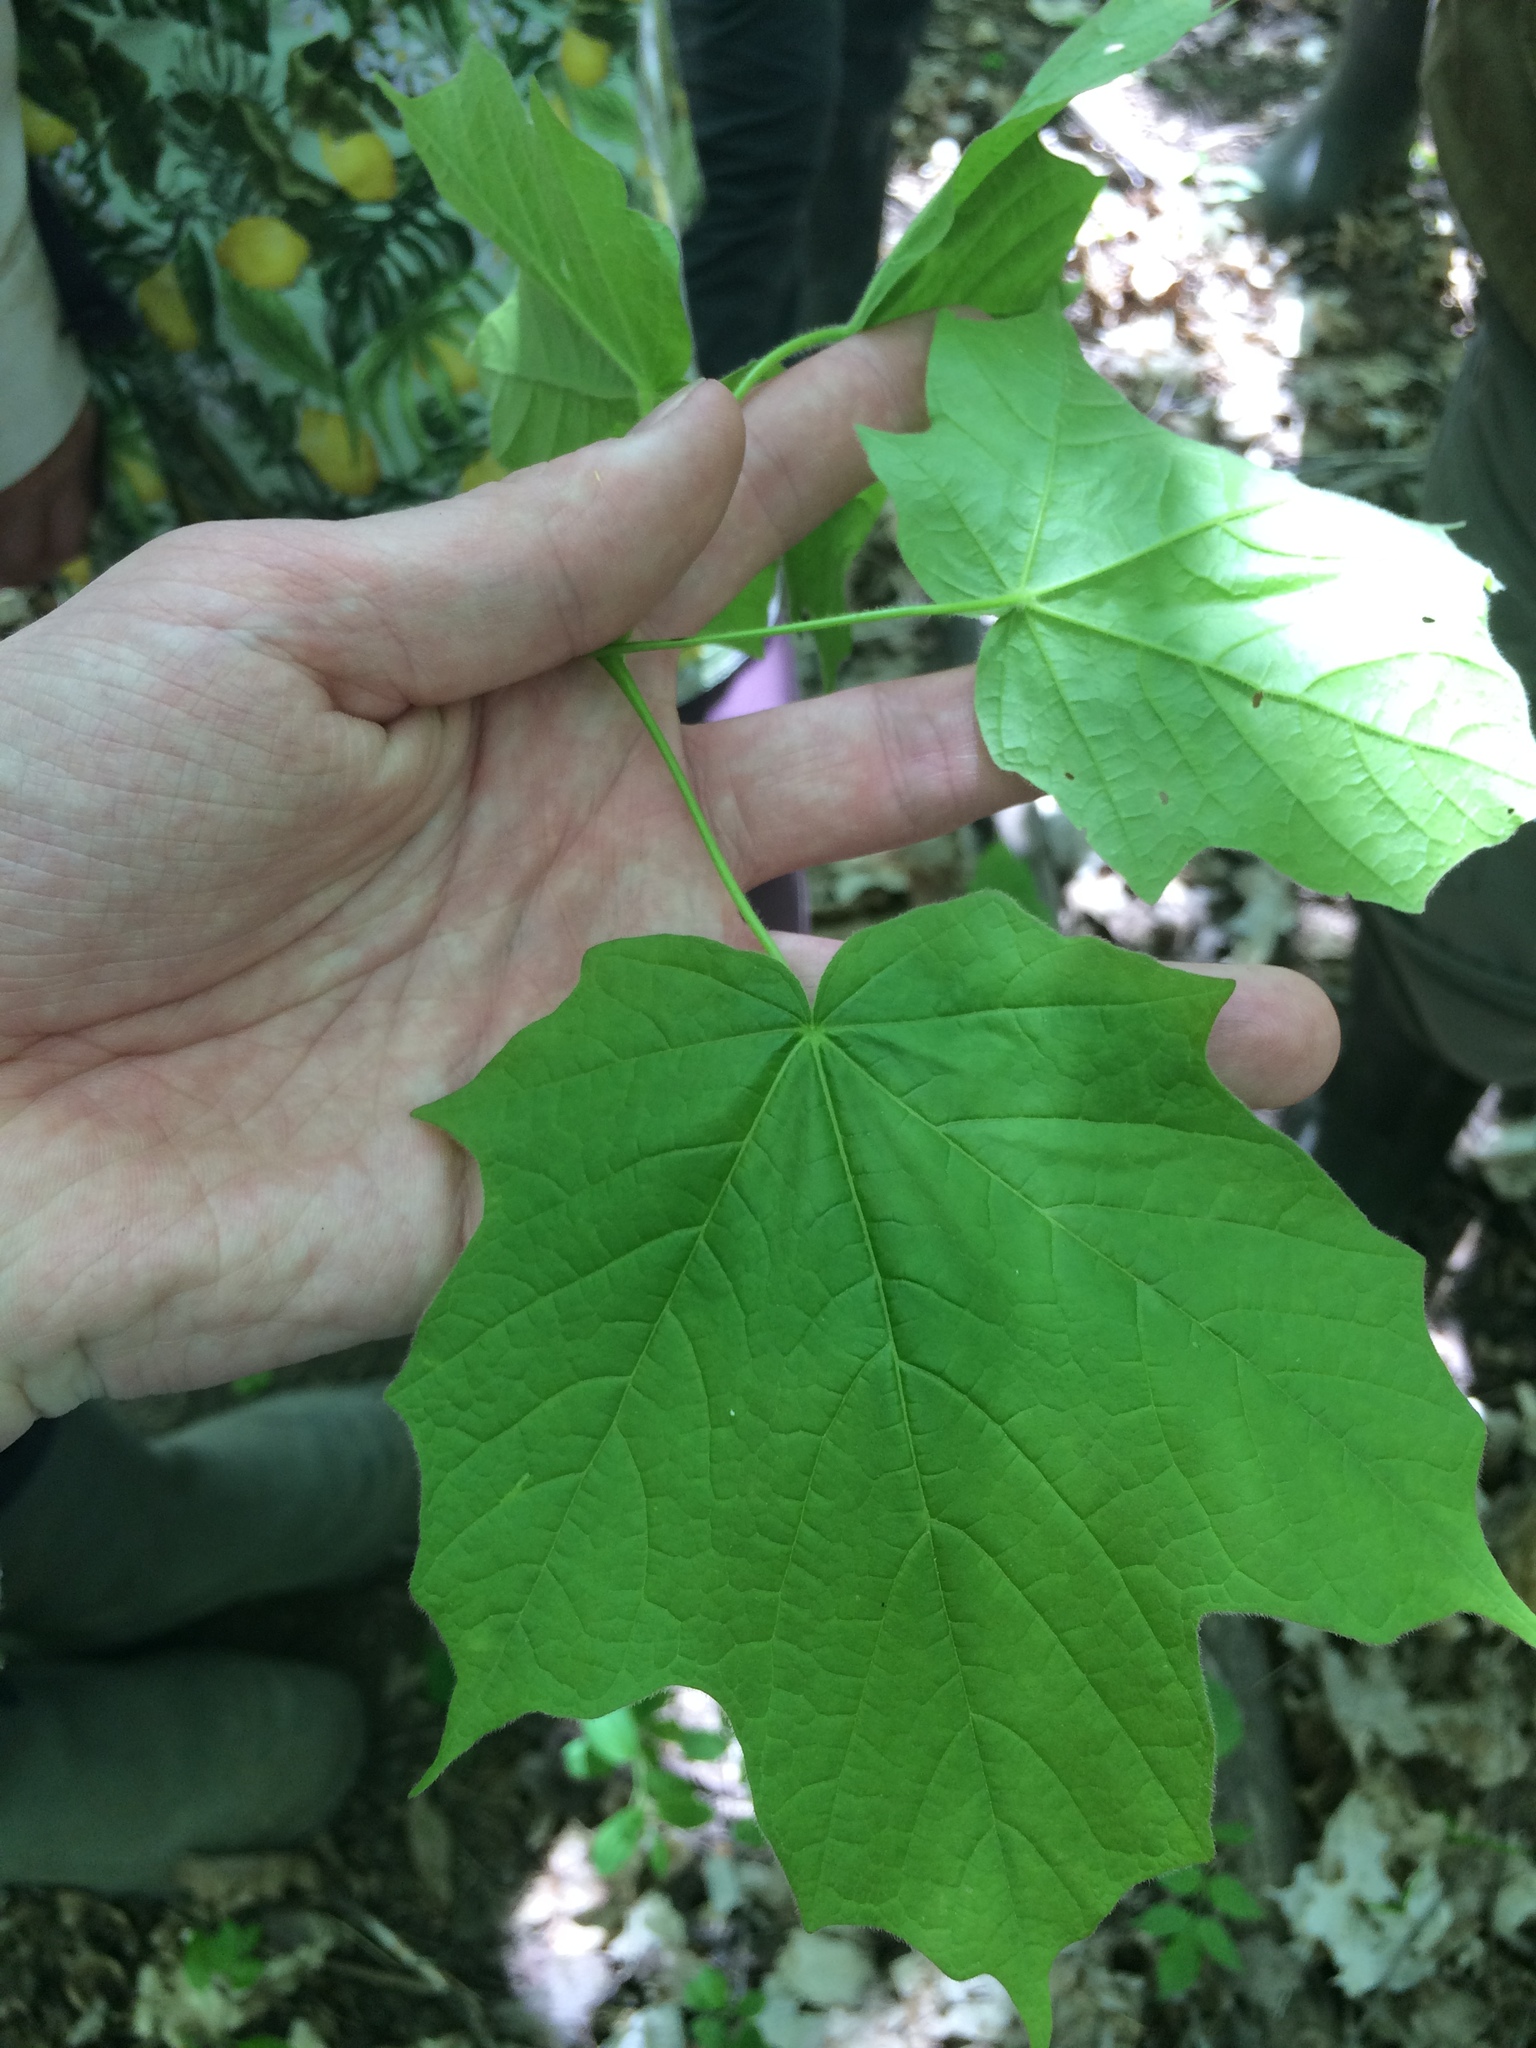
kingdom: Plantae
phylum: Tracheophyta
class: Magnoliopsida
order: Sapindales
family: Sapindaceae
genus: Acer
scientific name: Acer nigrum
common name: Black maple
